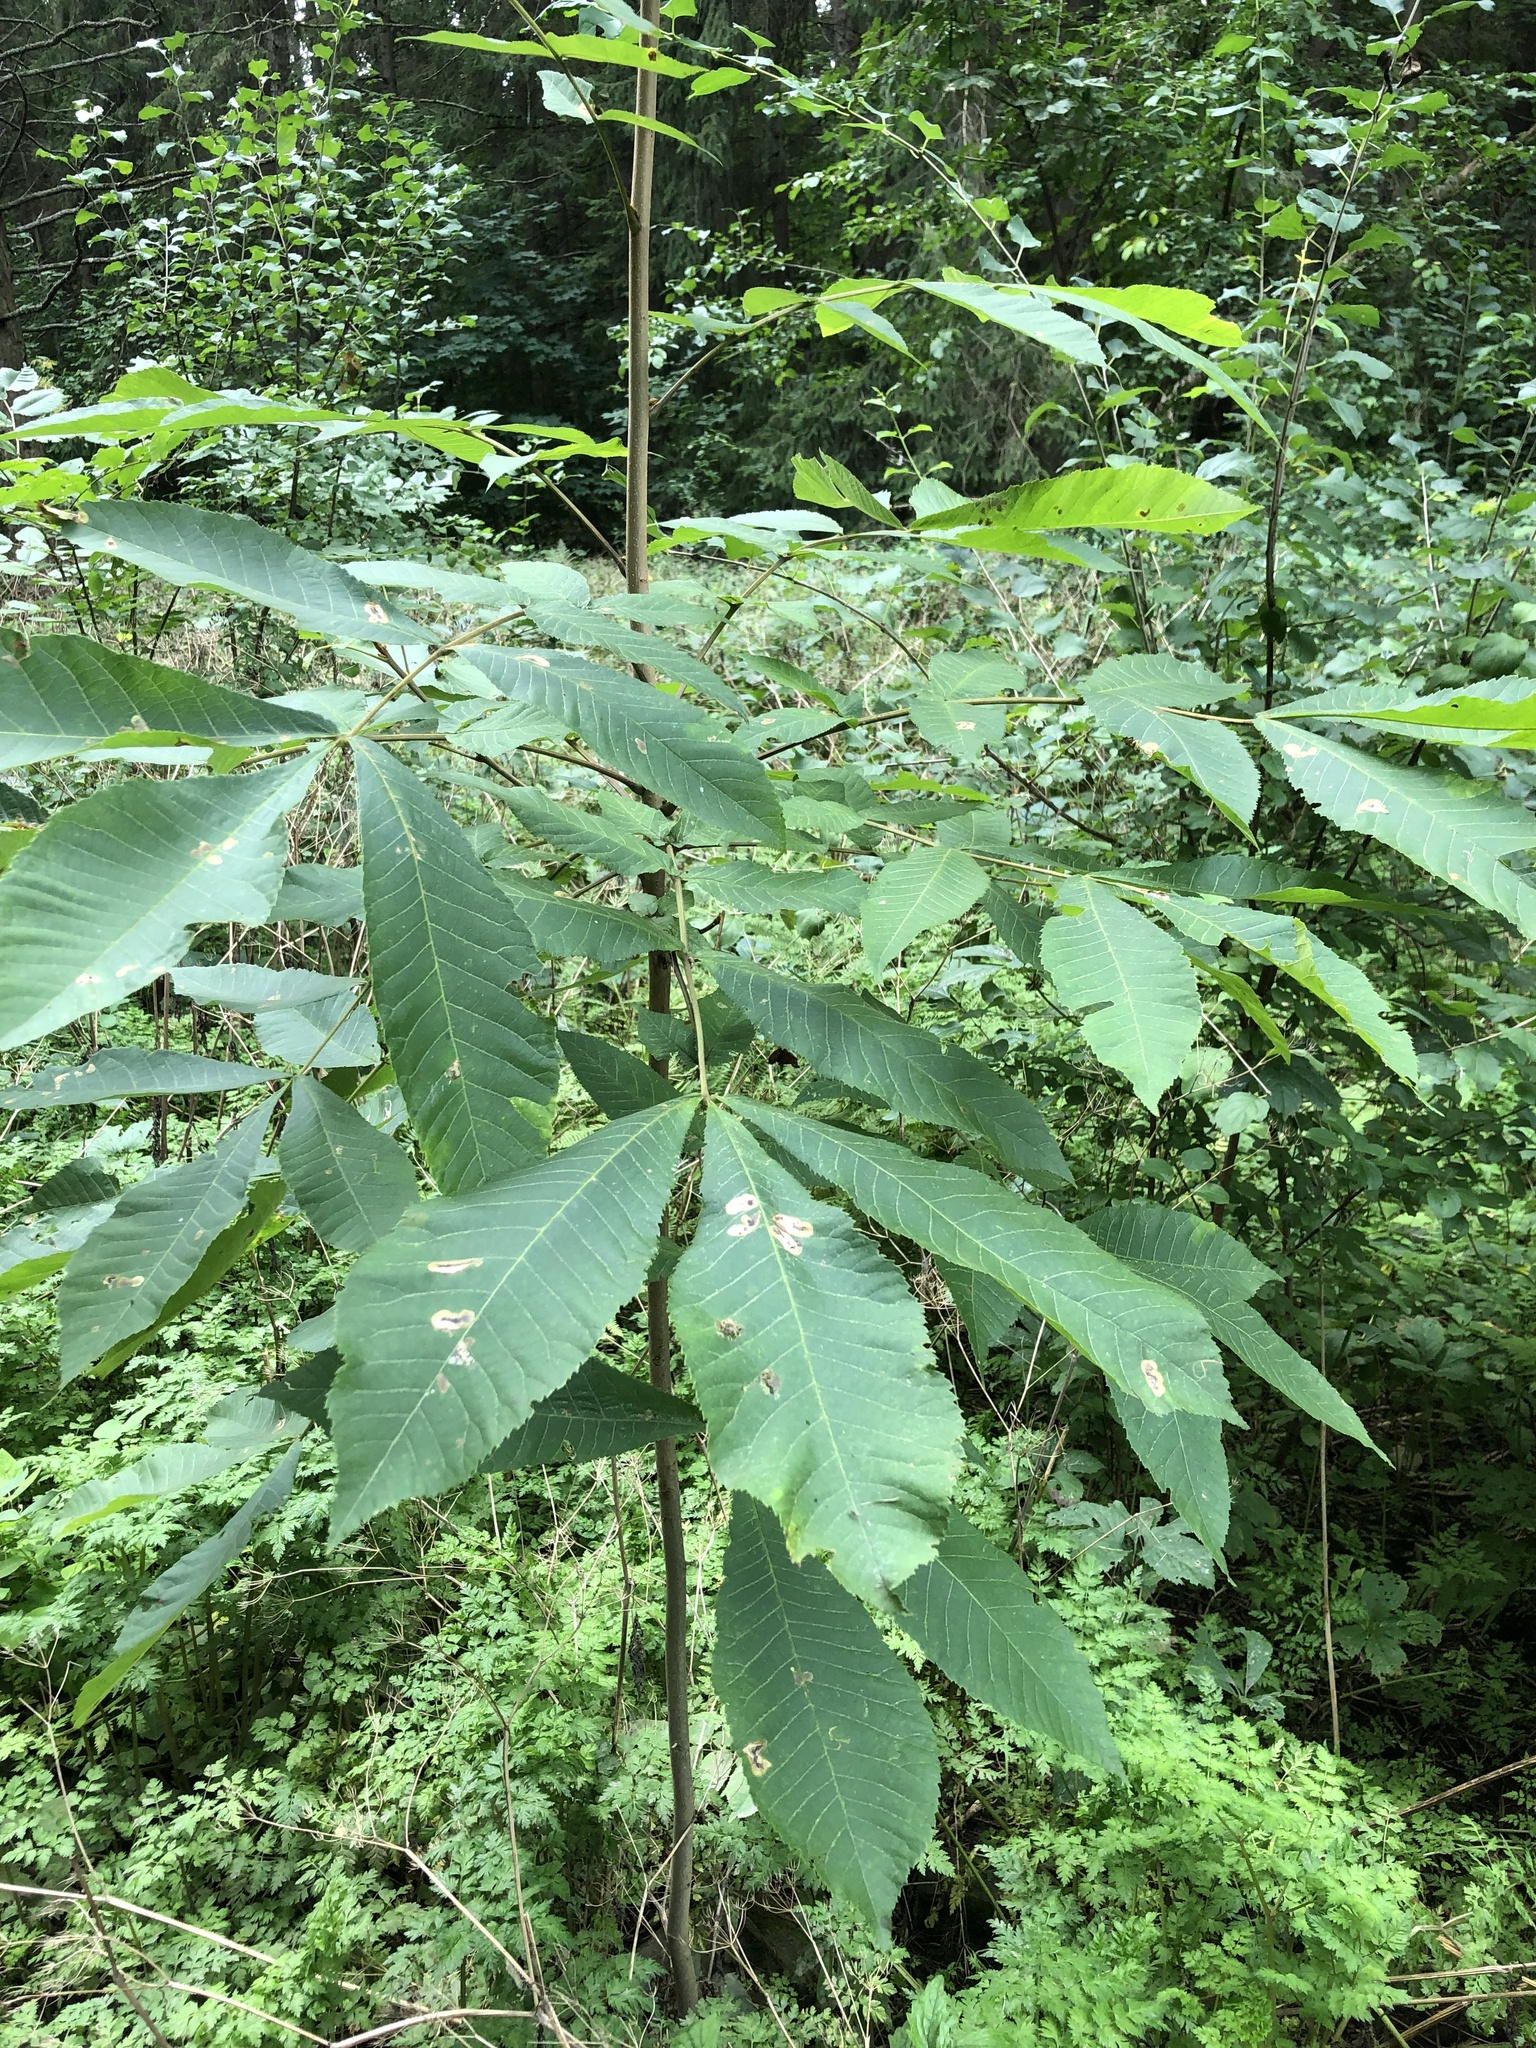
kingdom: Plantae
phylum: Tracheophyta
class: Magnoliopsida
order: Fagales
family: Juglandaceae
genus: Carya
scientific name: Carya cordiformis
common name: Bitternut hickory
